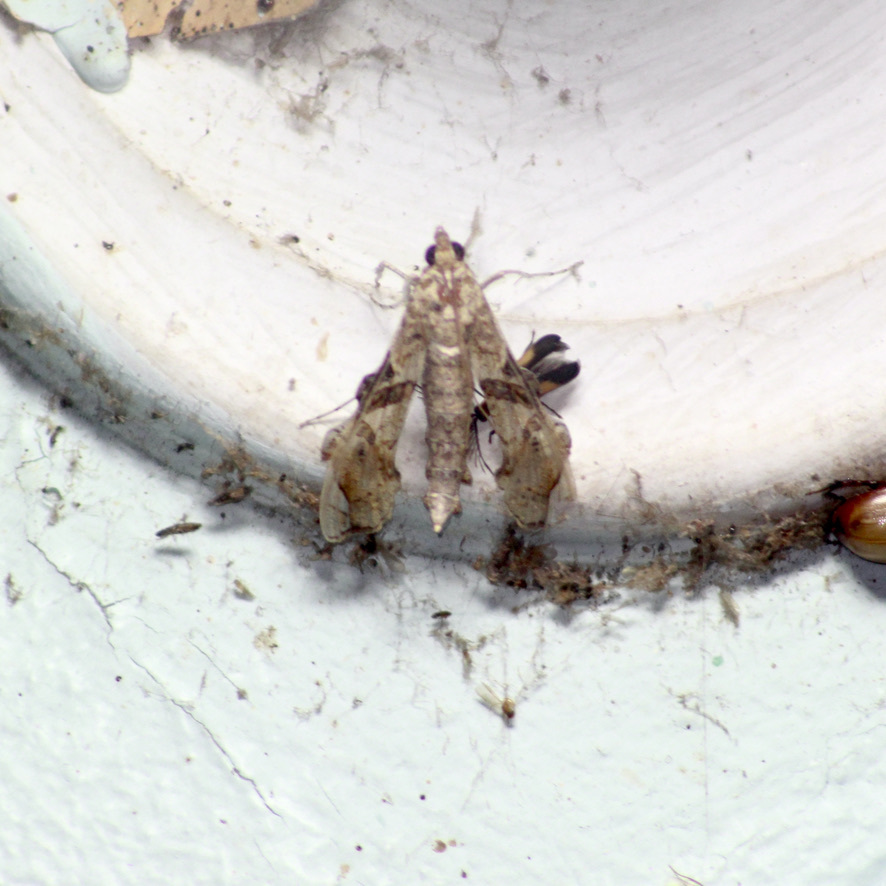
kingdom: Animalia
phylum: Arthropoda
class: Insecta
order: Lepidoptera
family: Crambidae
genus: Terastia
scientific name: Terastia meticulosalis
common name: Moth
